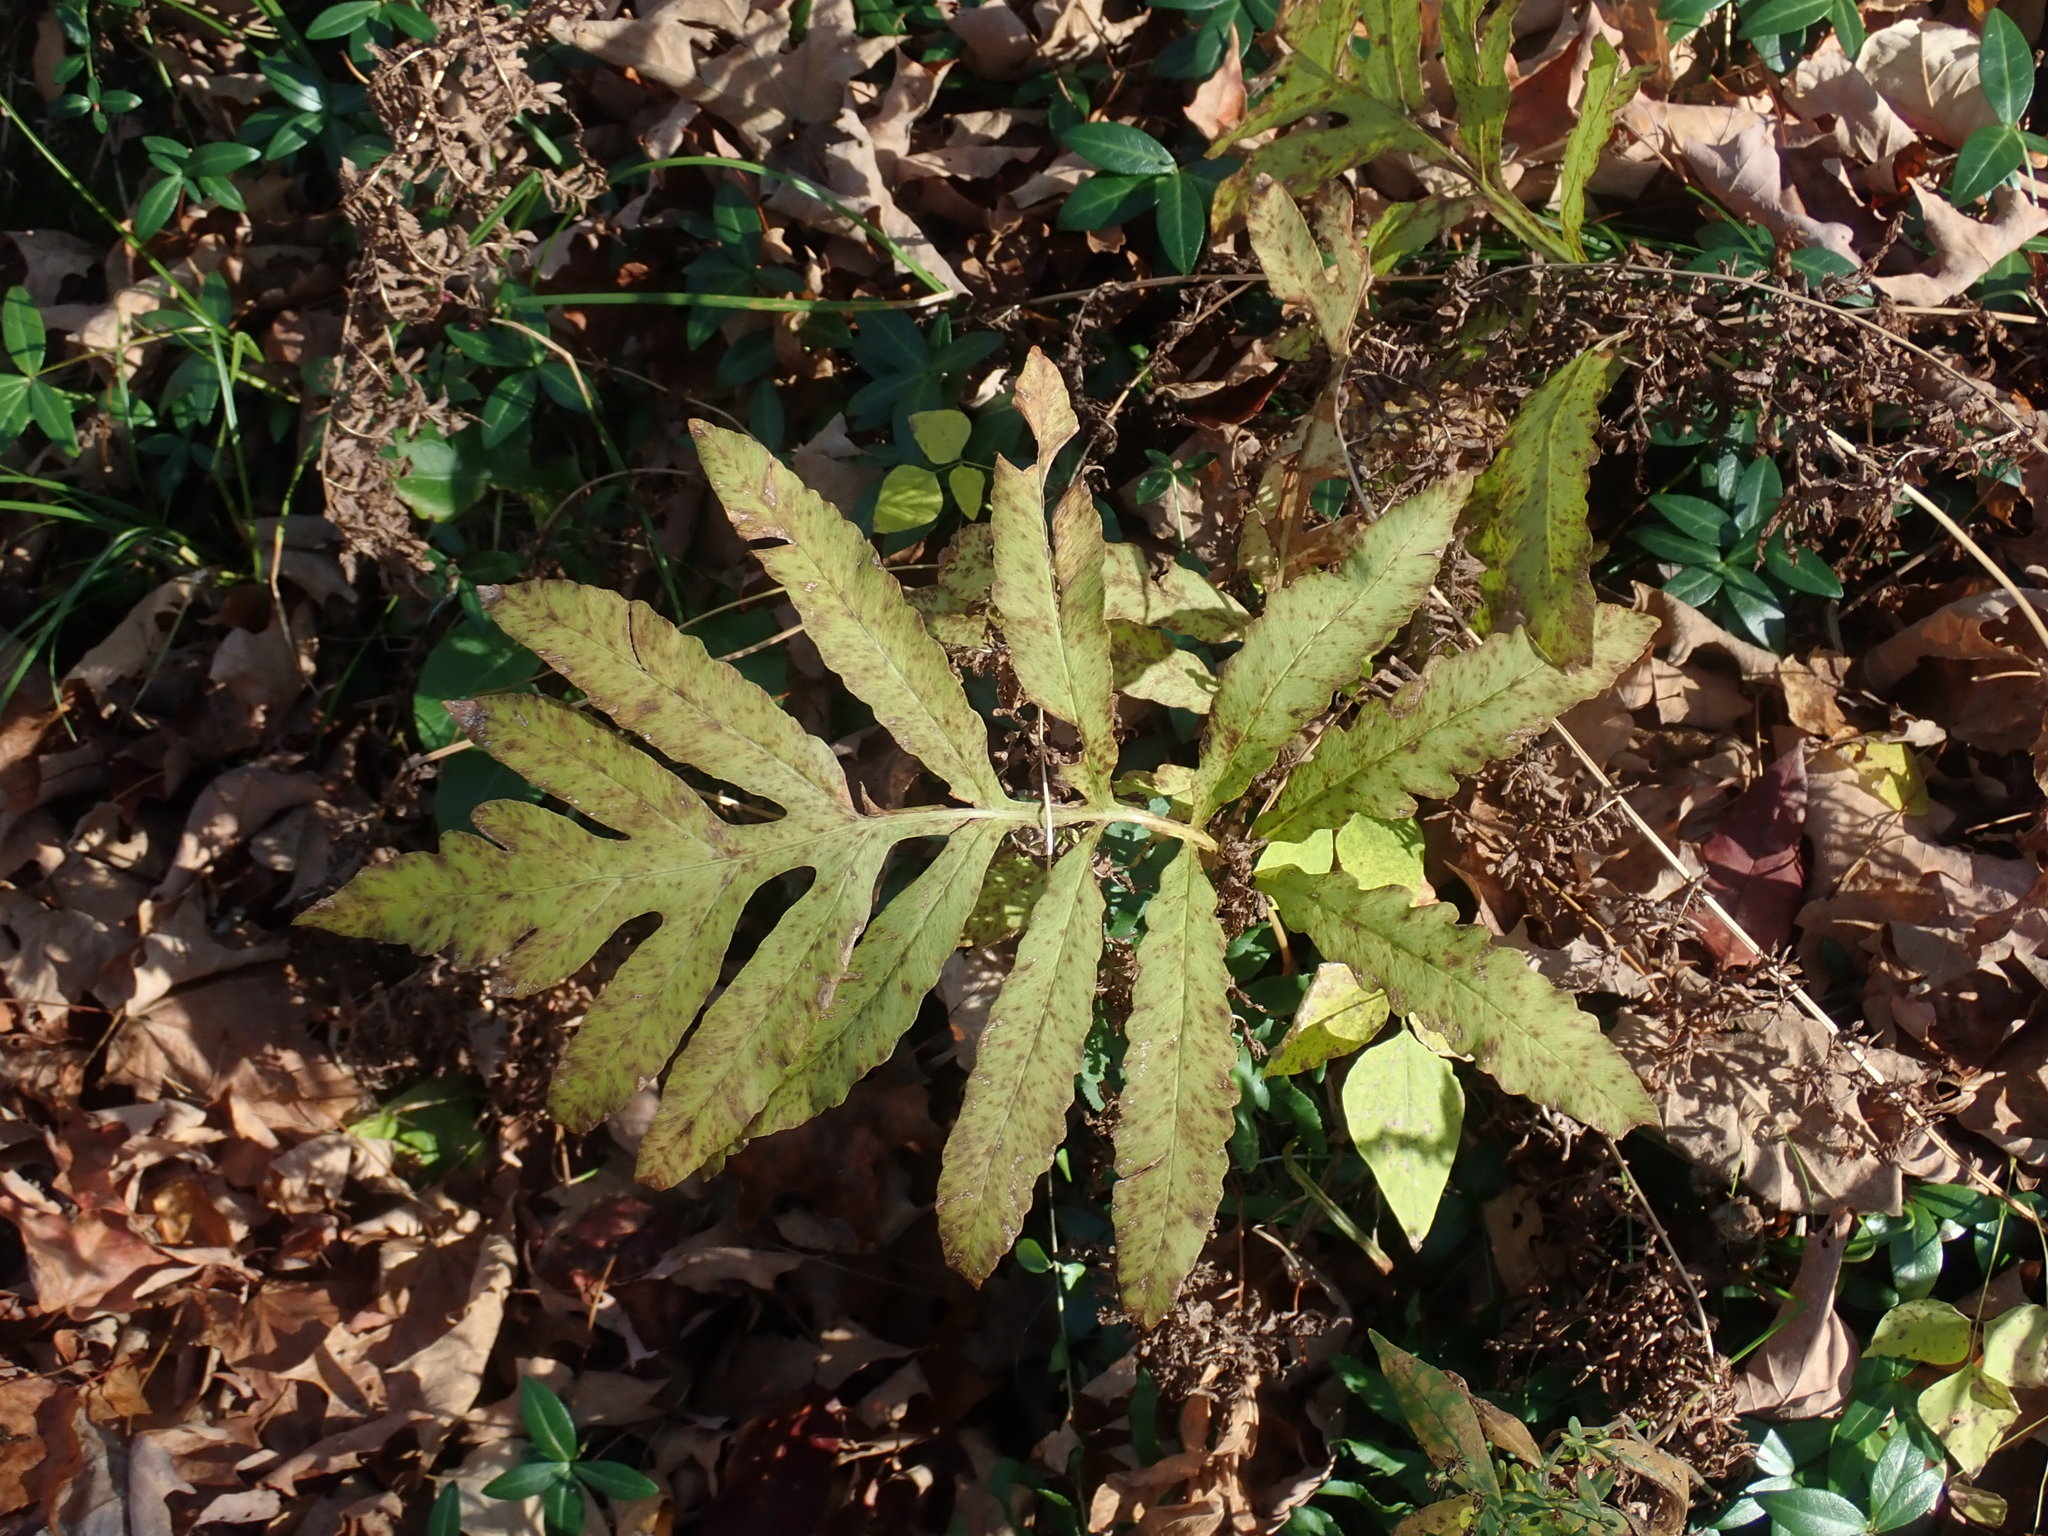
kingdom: Plantae
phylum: Tracheophyta
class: Polypodiopsida
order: Polypodiales
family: Onocleaceae
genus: Onoclea
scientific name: Onoclea sensibilis
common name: Sensitive fern
